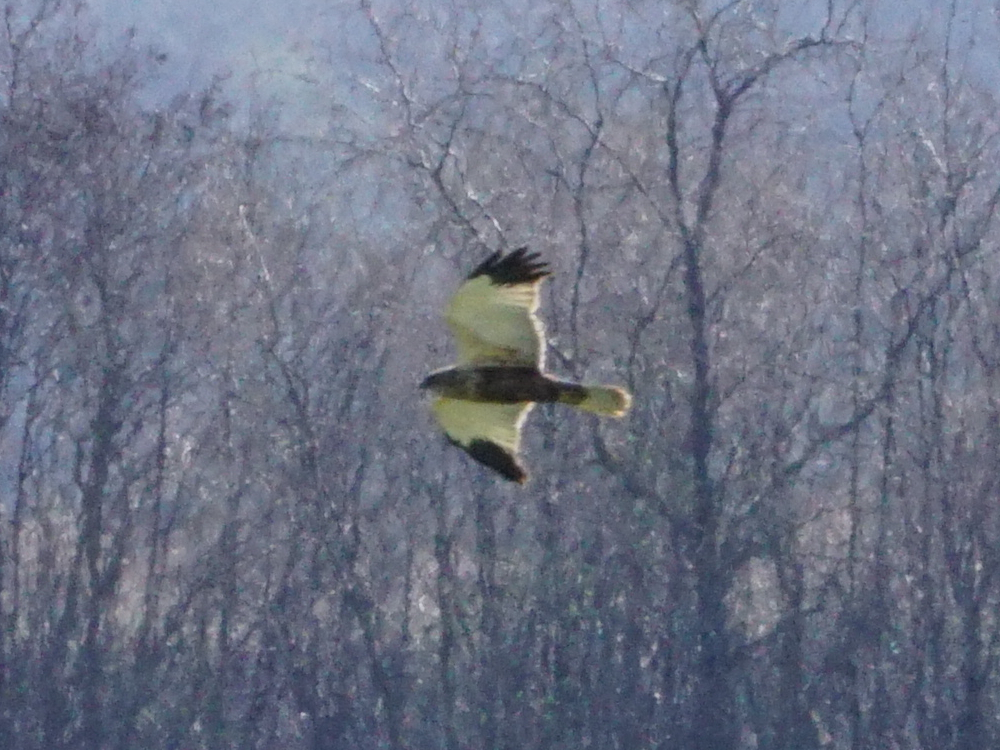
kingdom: Animalia
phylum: Chordata
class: Aves
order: Accipitriformes
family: Accipitridae
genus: Circus
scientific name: Circus aeruginosus
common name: Western marsh harrier
